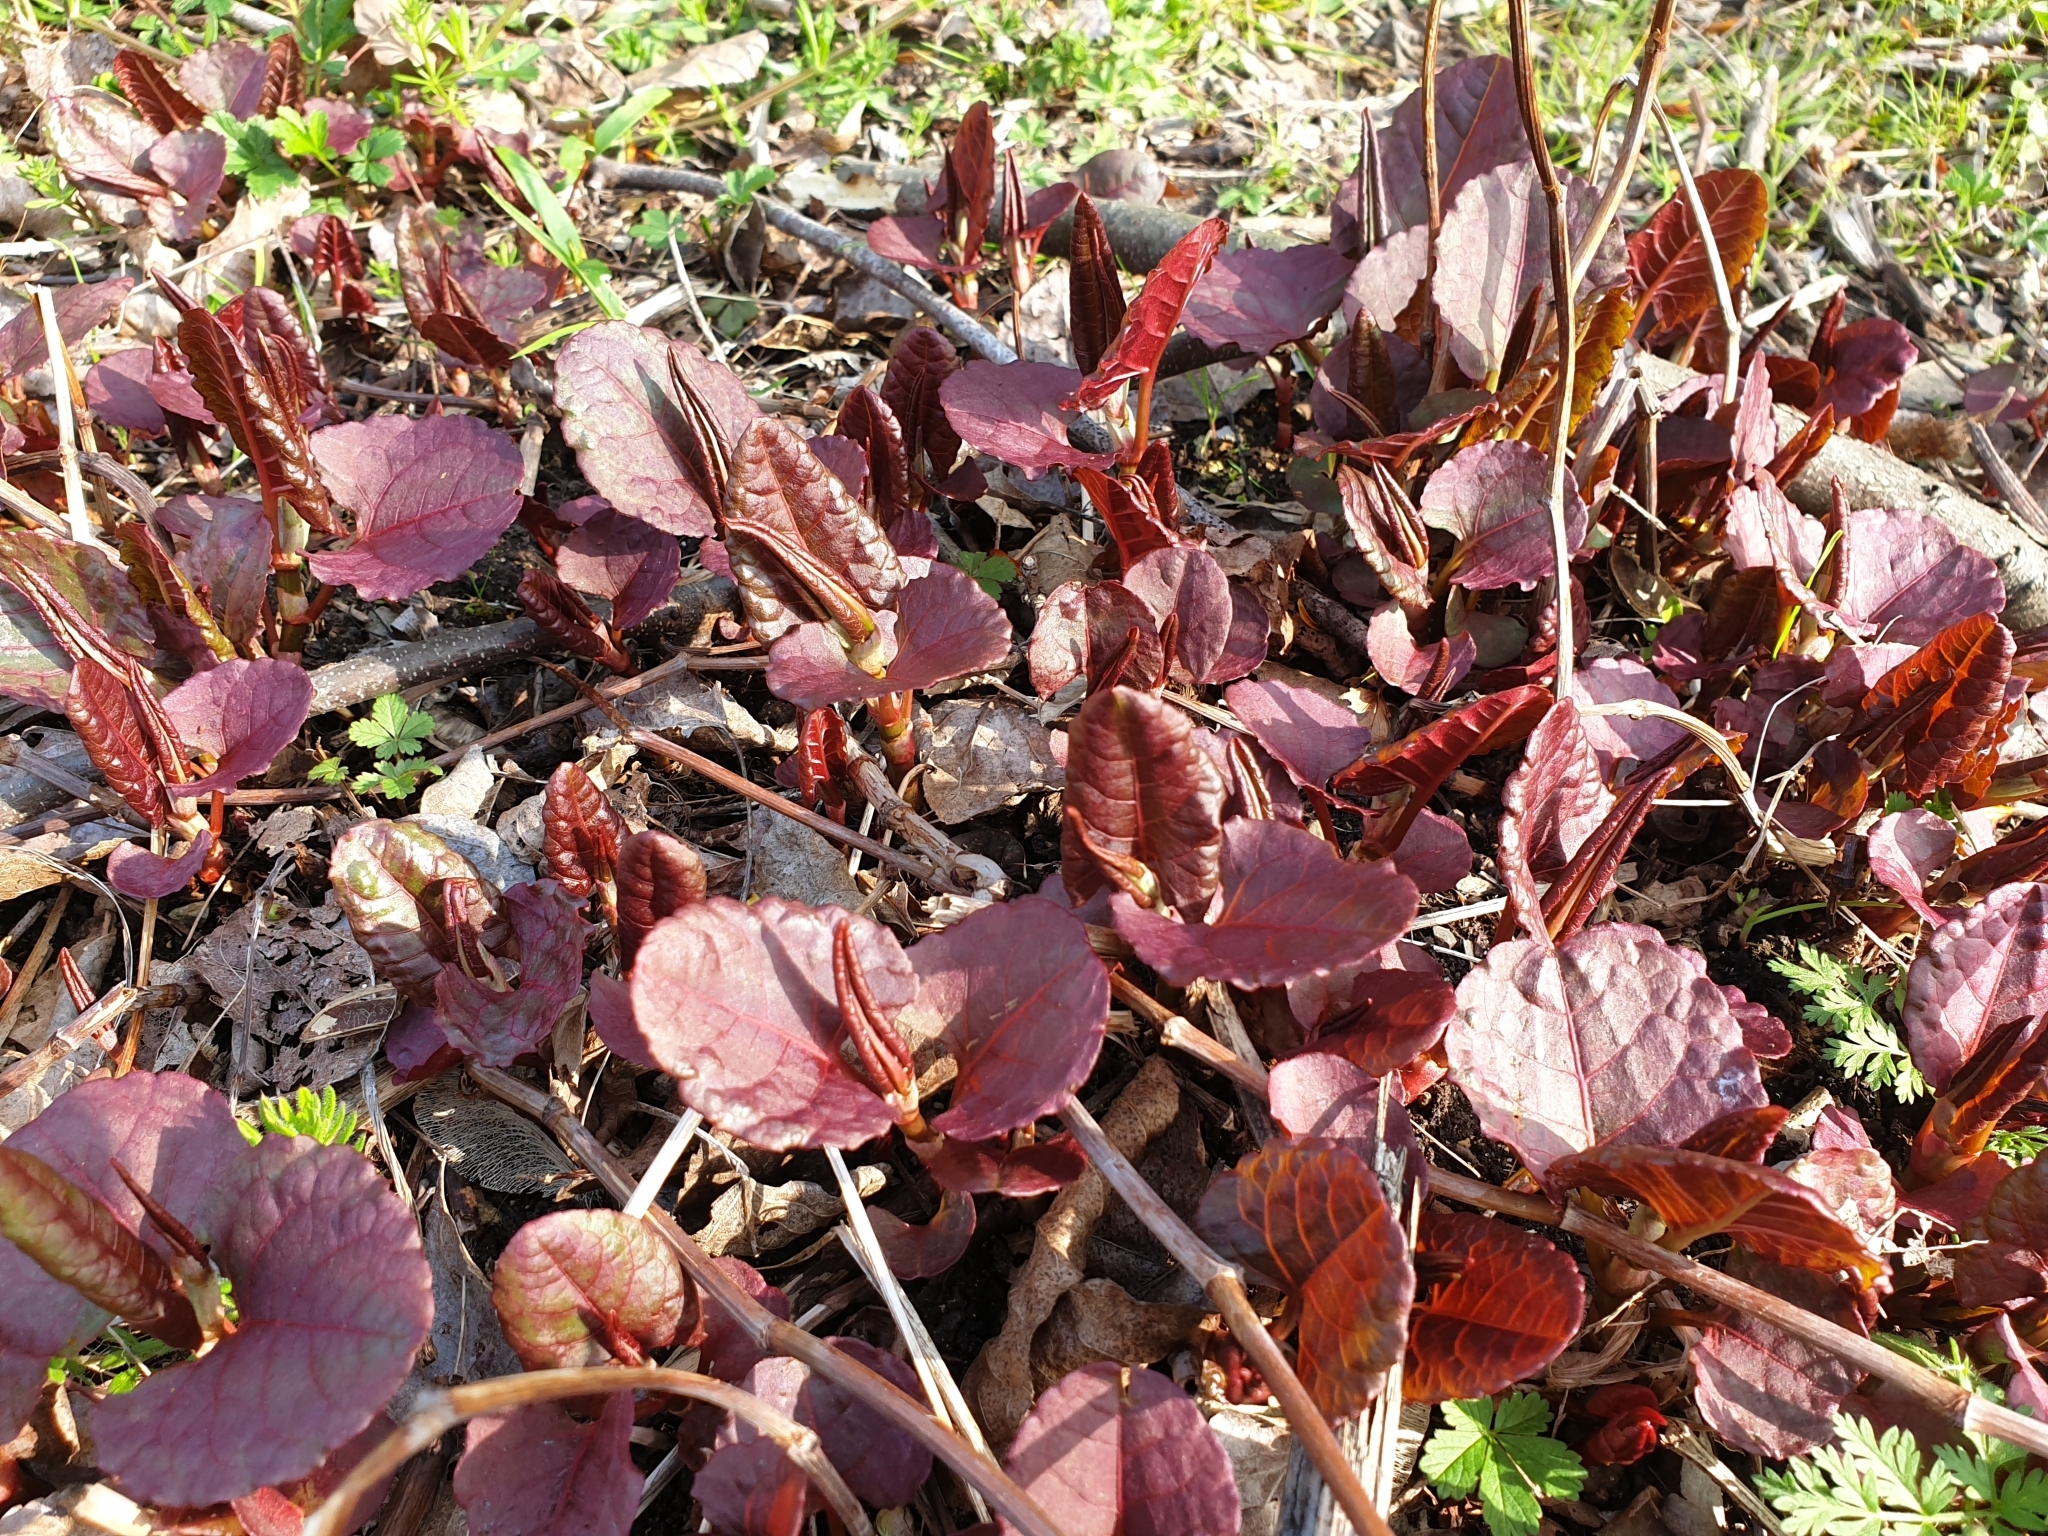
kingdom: Plantae
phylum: Tracheophyta
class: Magnoliopsida
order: Caryophyllales
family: Polygonaceae
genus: Reynoutria
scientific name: Reynoutria japonica
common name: Japanese knotweed
